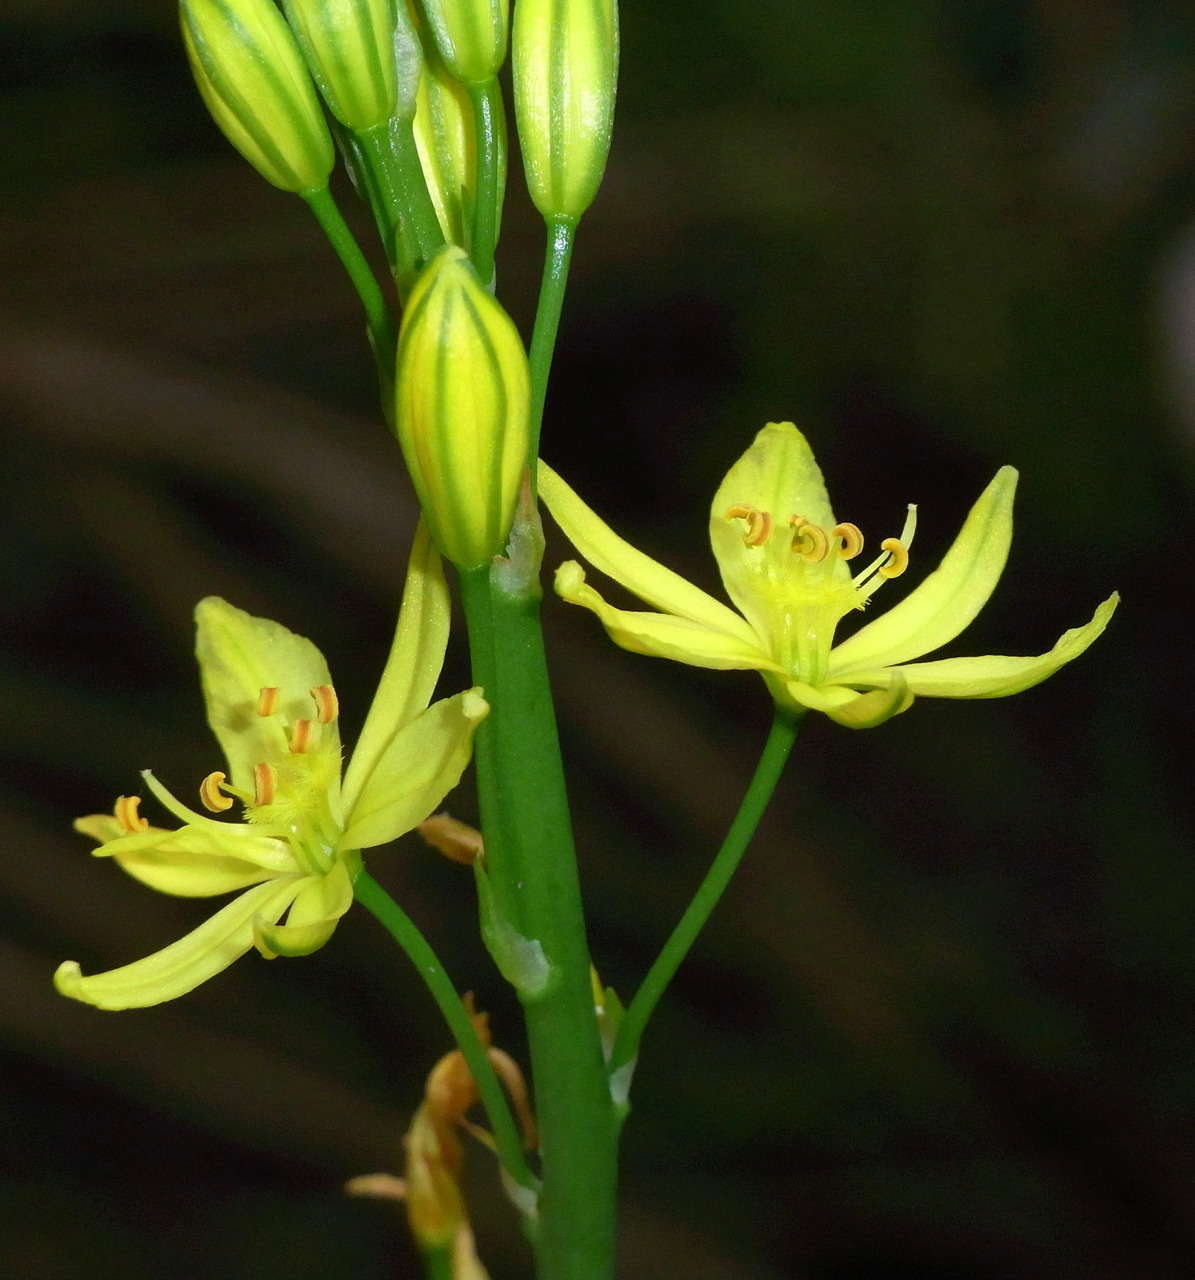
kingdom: Plantae
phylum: Tracheophyta
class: Liliopsida
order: Asparagales
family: Asphodelaceae
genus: Bulbine
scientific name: Bulbine bulbosa
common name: Golden-lily
